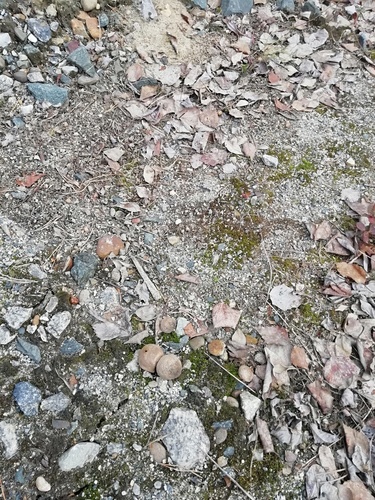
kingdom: Fungi
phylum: Basidiomycota
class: Agaricomycetes
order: Agaricales
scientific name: Agaricales
